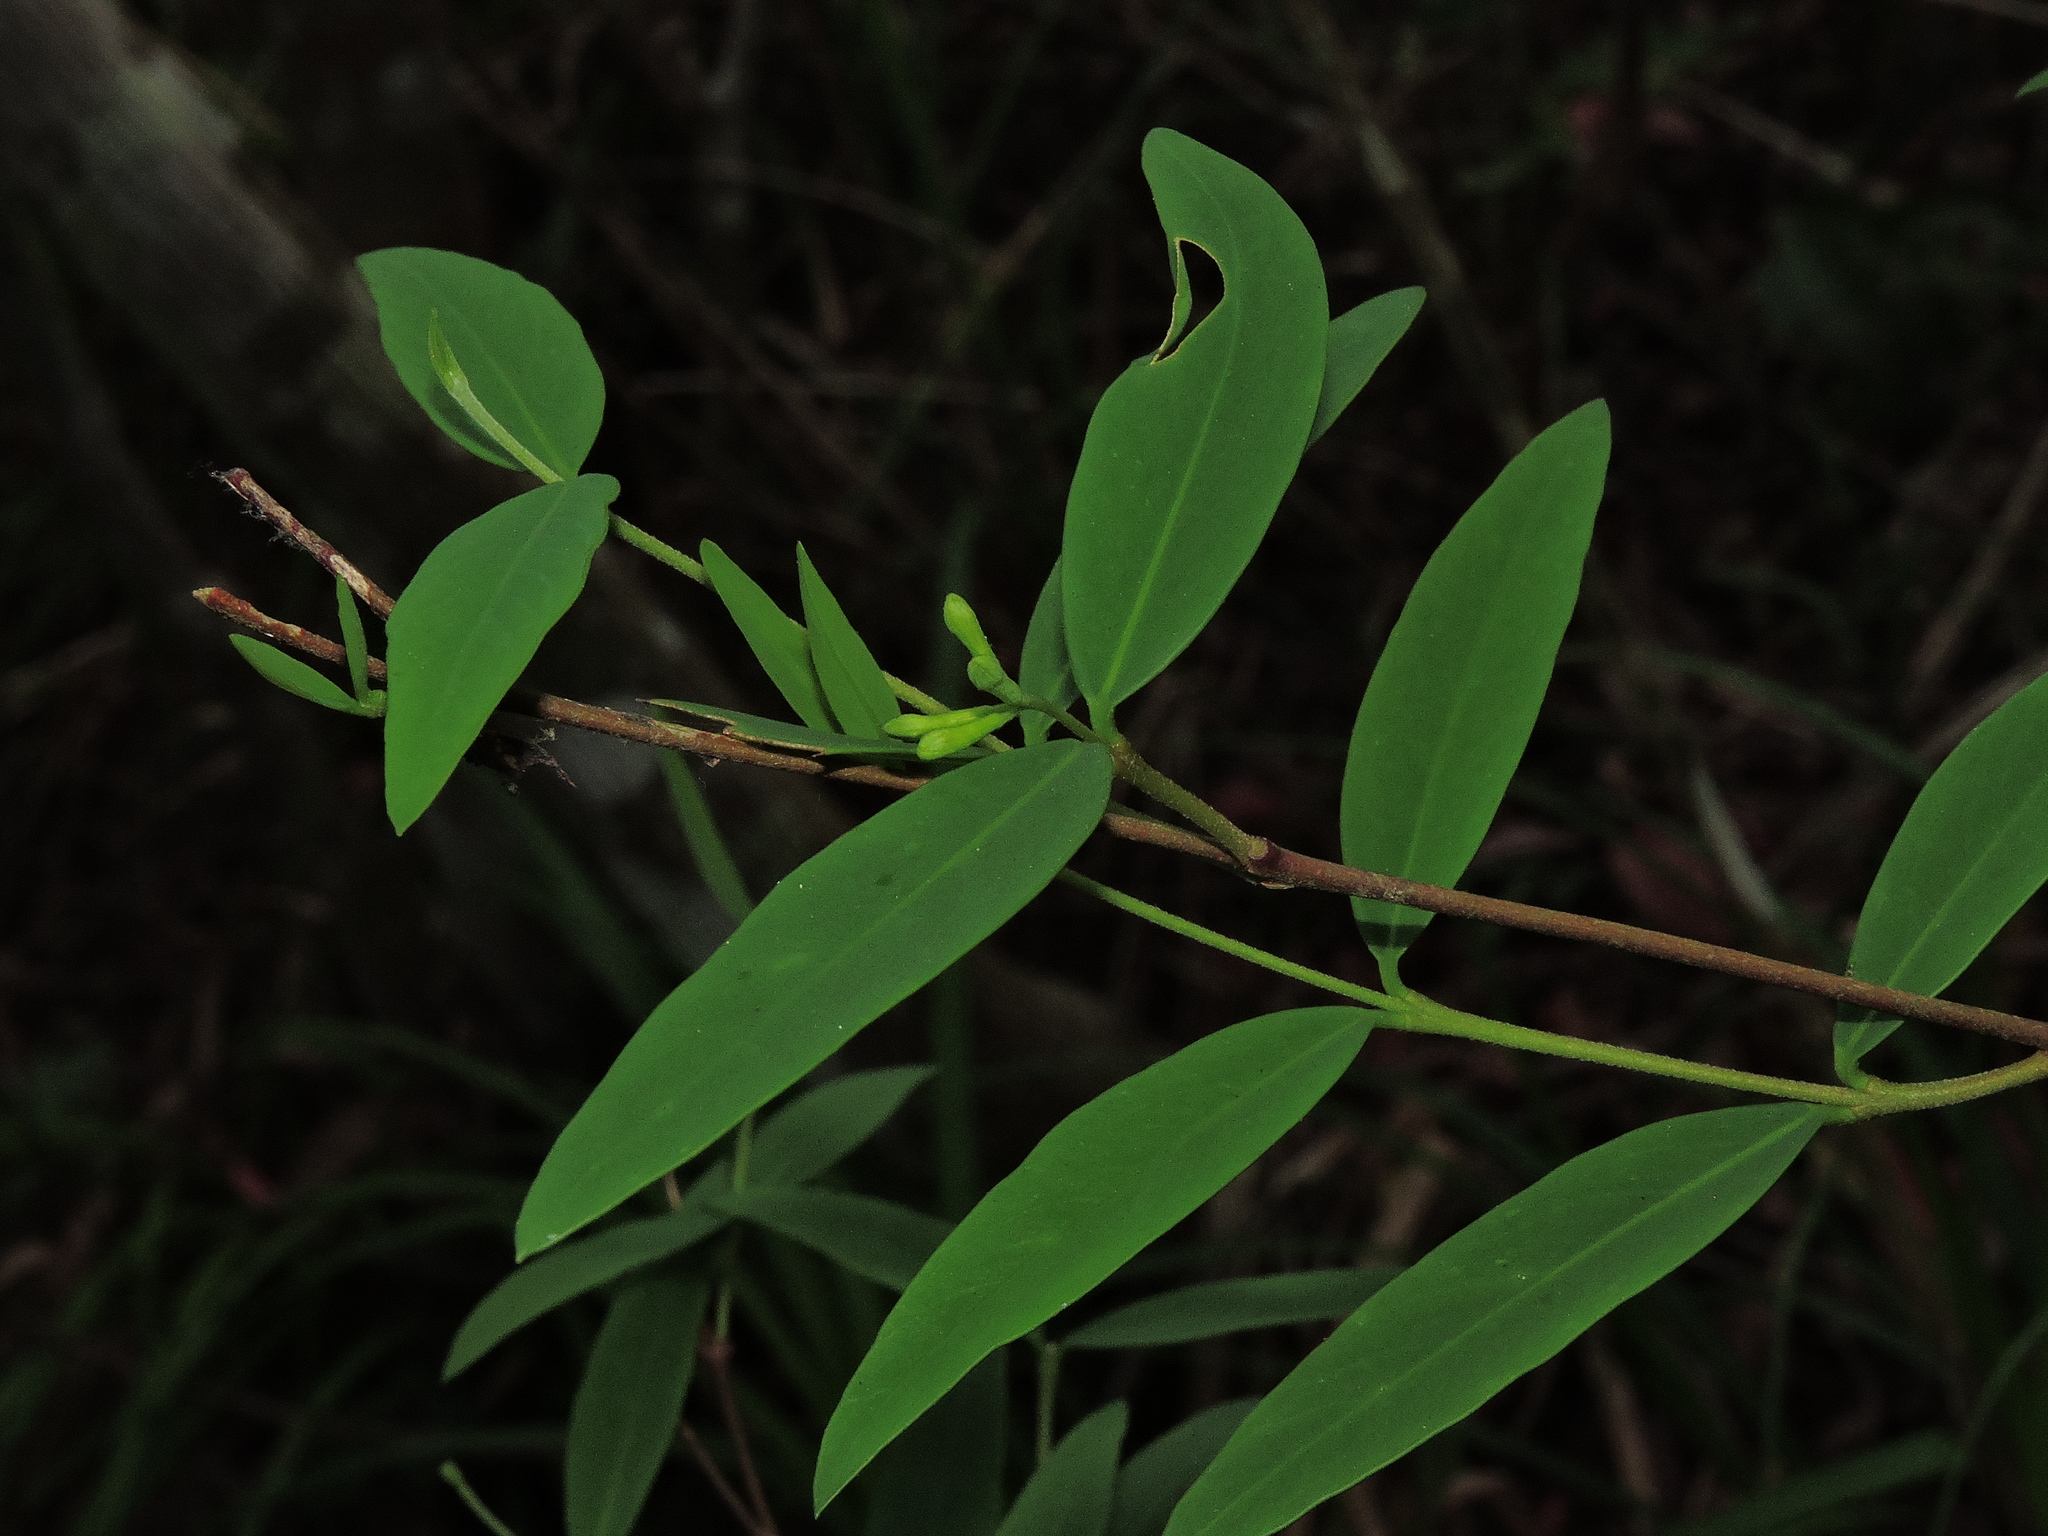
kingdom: Plantae
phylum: Tracheophyta
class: Magnoliopsida
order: Malvales
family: Thymelaeaceae
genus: Wikstroemia
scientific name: Wikstroemia lanceolata
